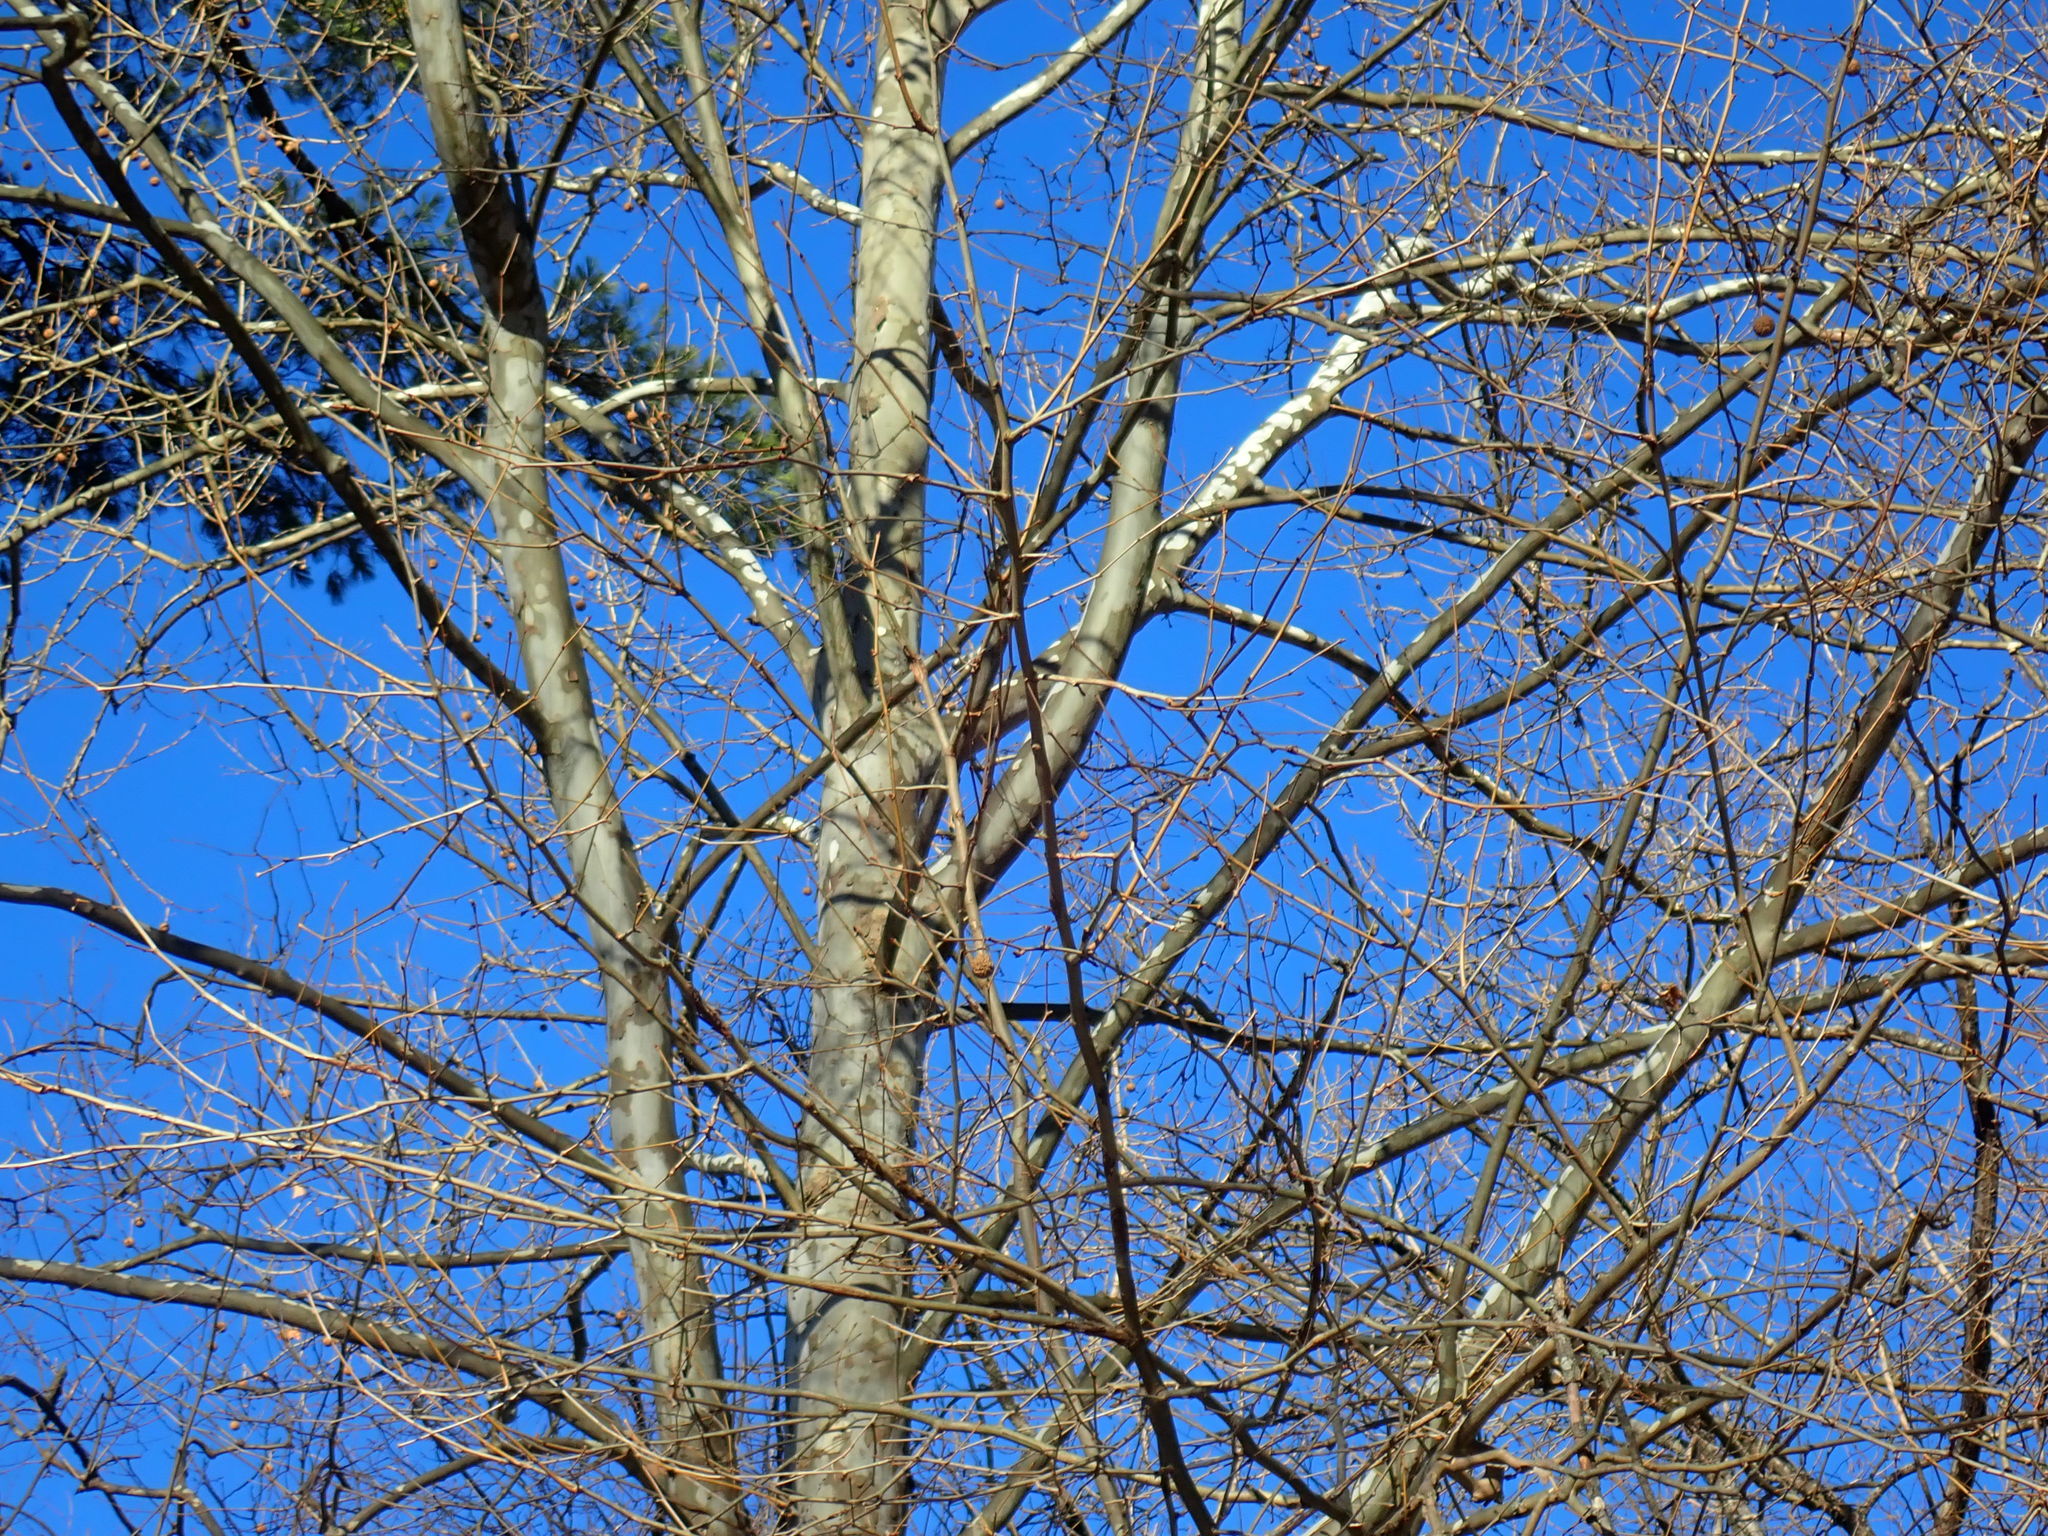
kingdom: Plantae
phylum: Tracheophyta
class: Magnoliopsida
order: Proteales
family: Platanaceae
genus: Platanus
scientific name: Platanus occidentalis
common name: American sycamore
